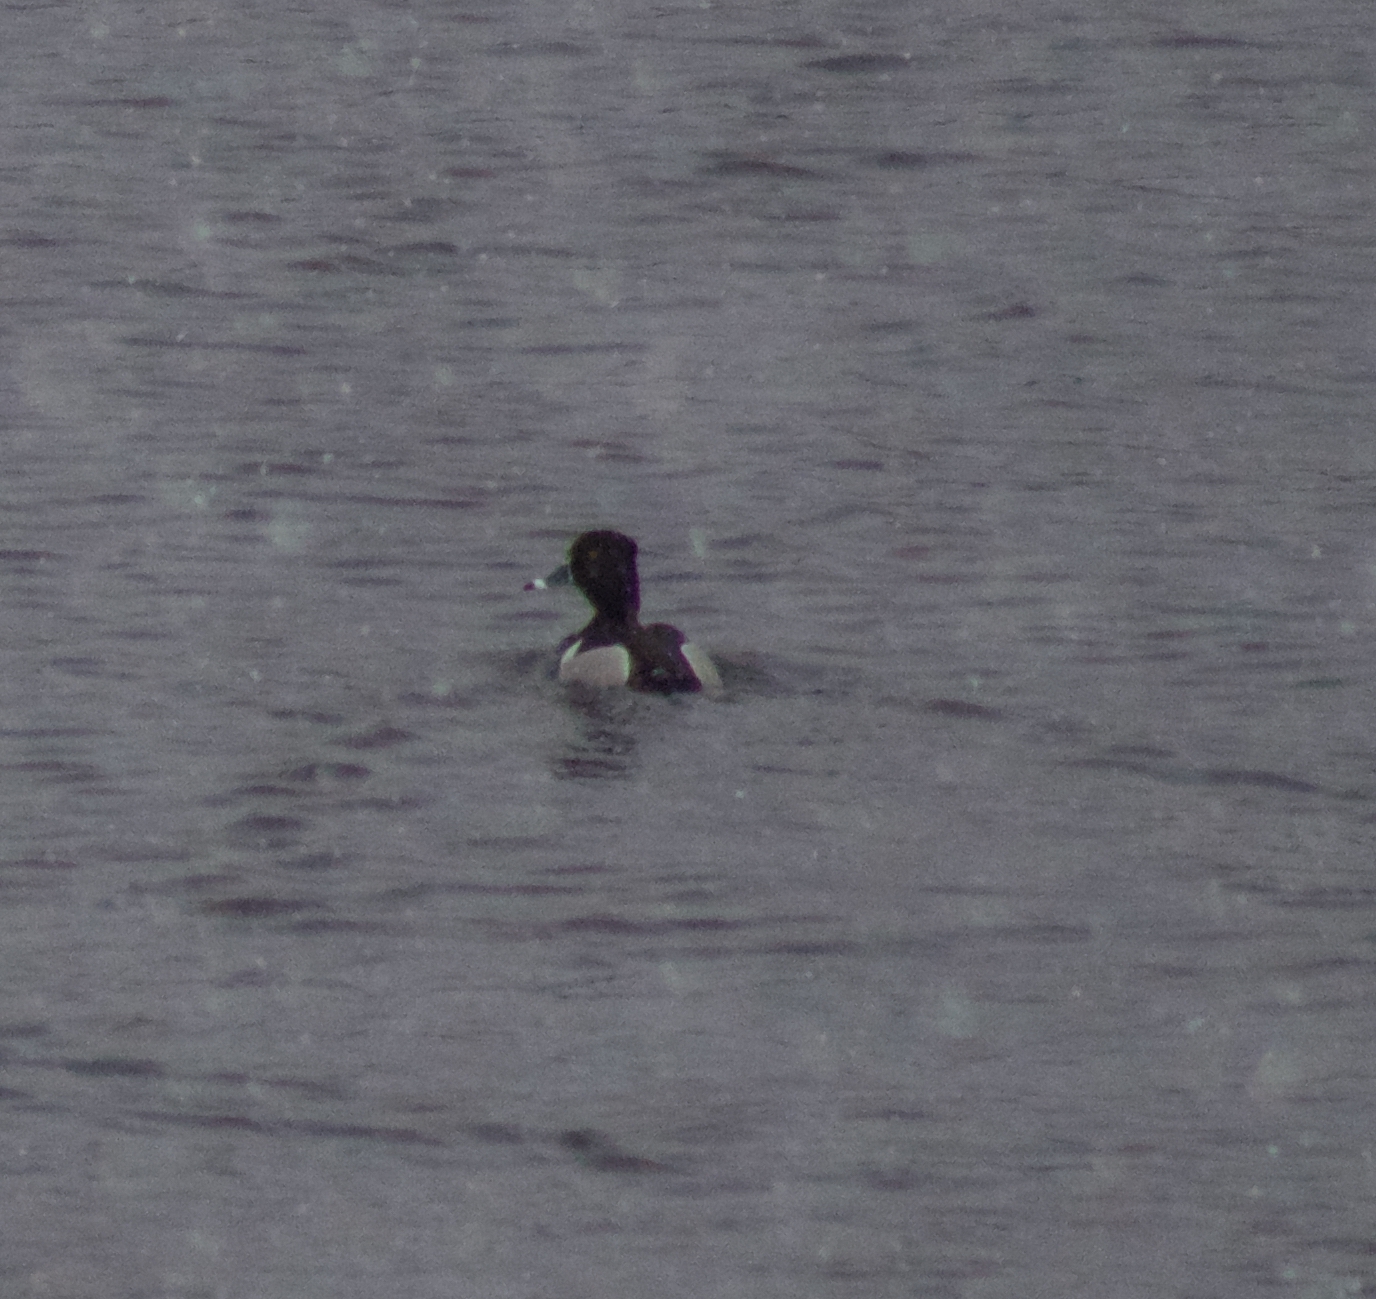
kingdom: Animalia
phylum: Chordata
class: Aves
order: Anseriformes
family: Anatidae
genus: Aythya
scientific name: Aythya collaris
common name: Ring-necked duck
